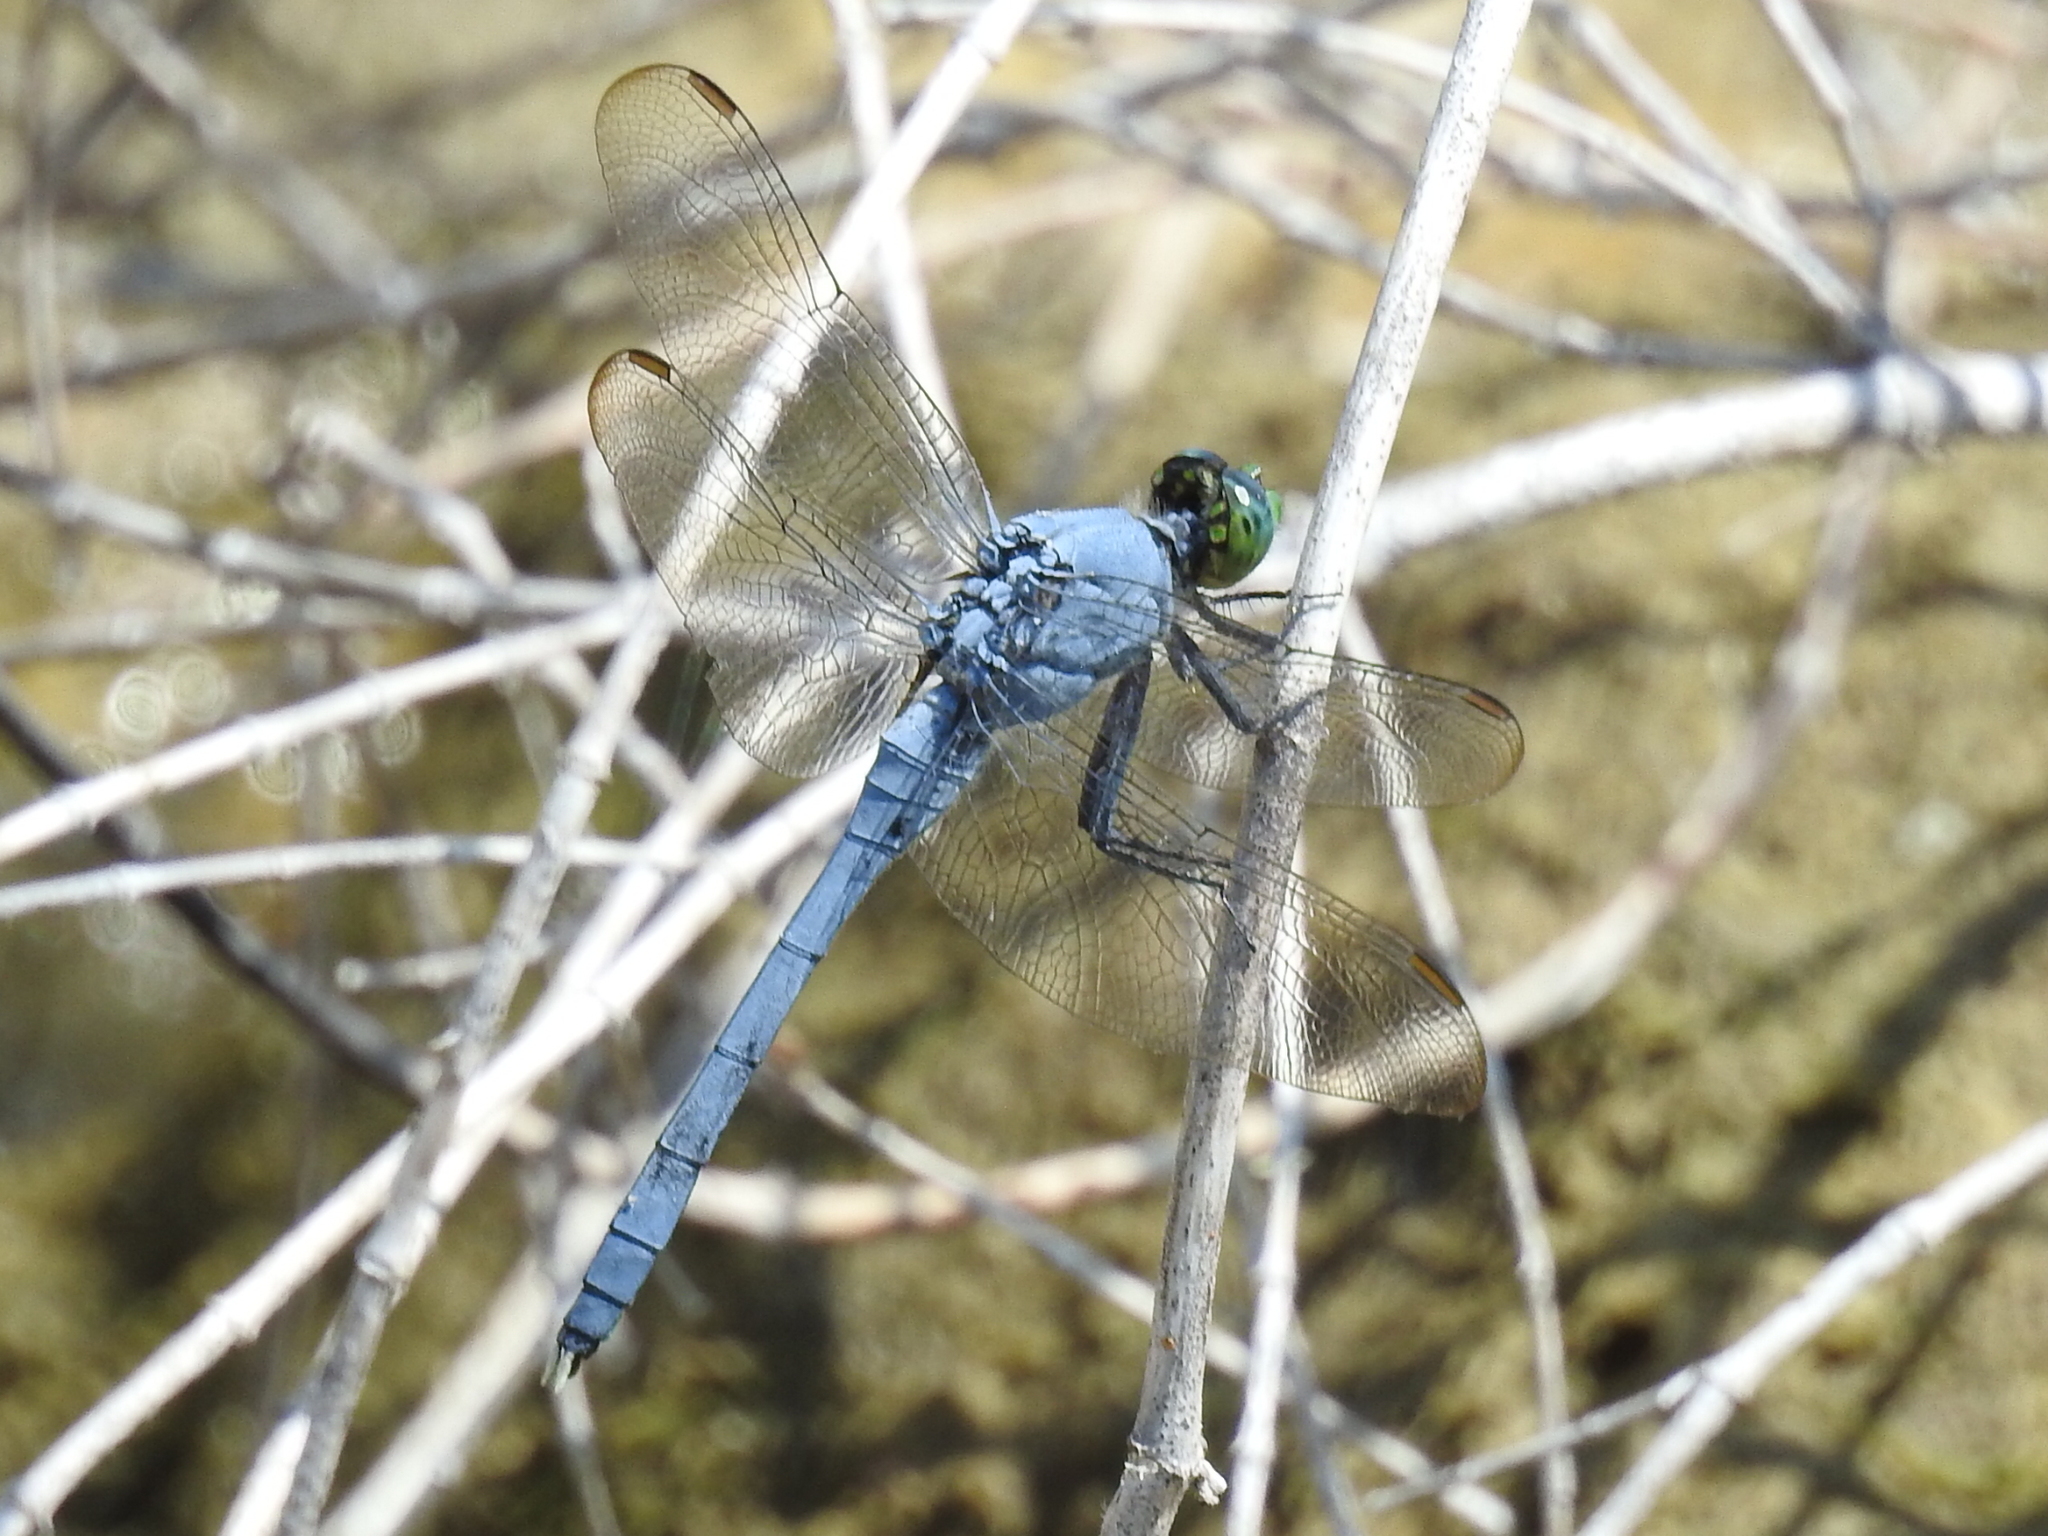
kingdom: Animalia
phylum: Arthropoda
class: Insecta
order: Odonata
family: Libellulidae
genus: Erythemis
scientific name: Erythemis simplicicollis
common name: Eastern pondhawk
